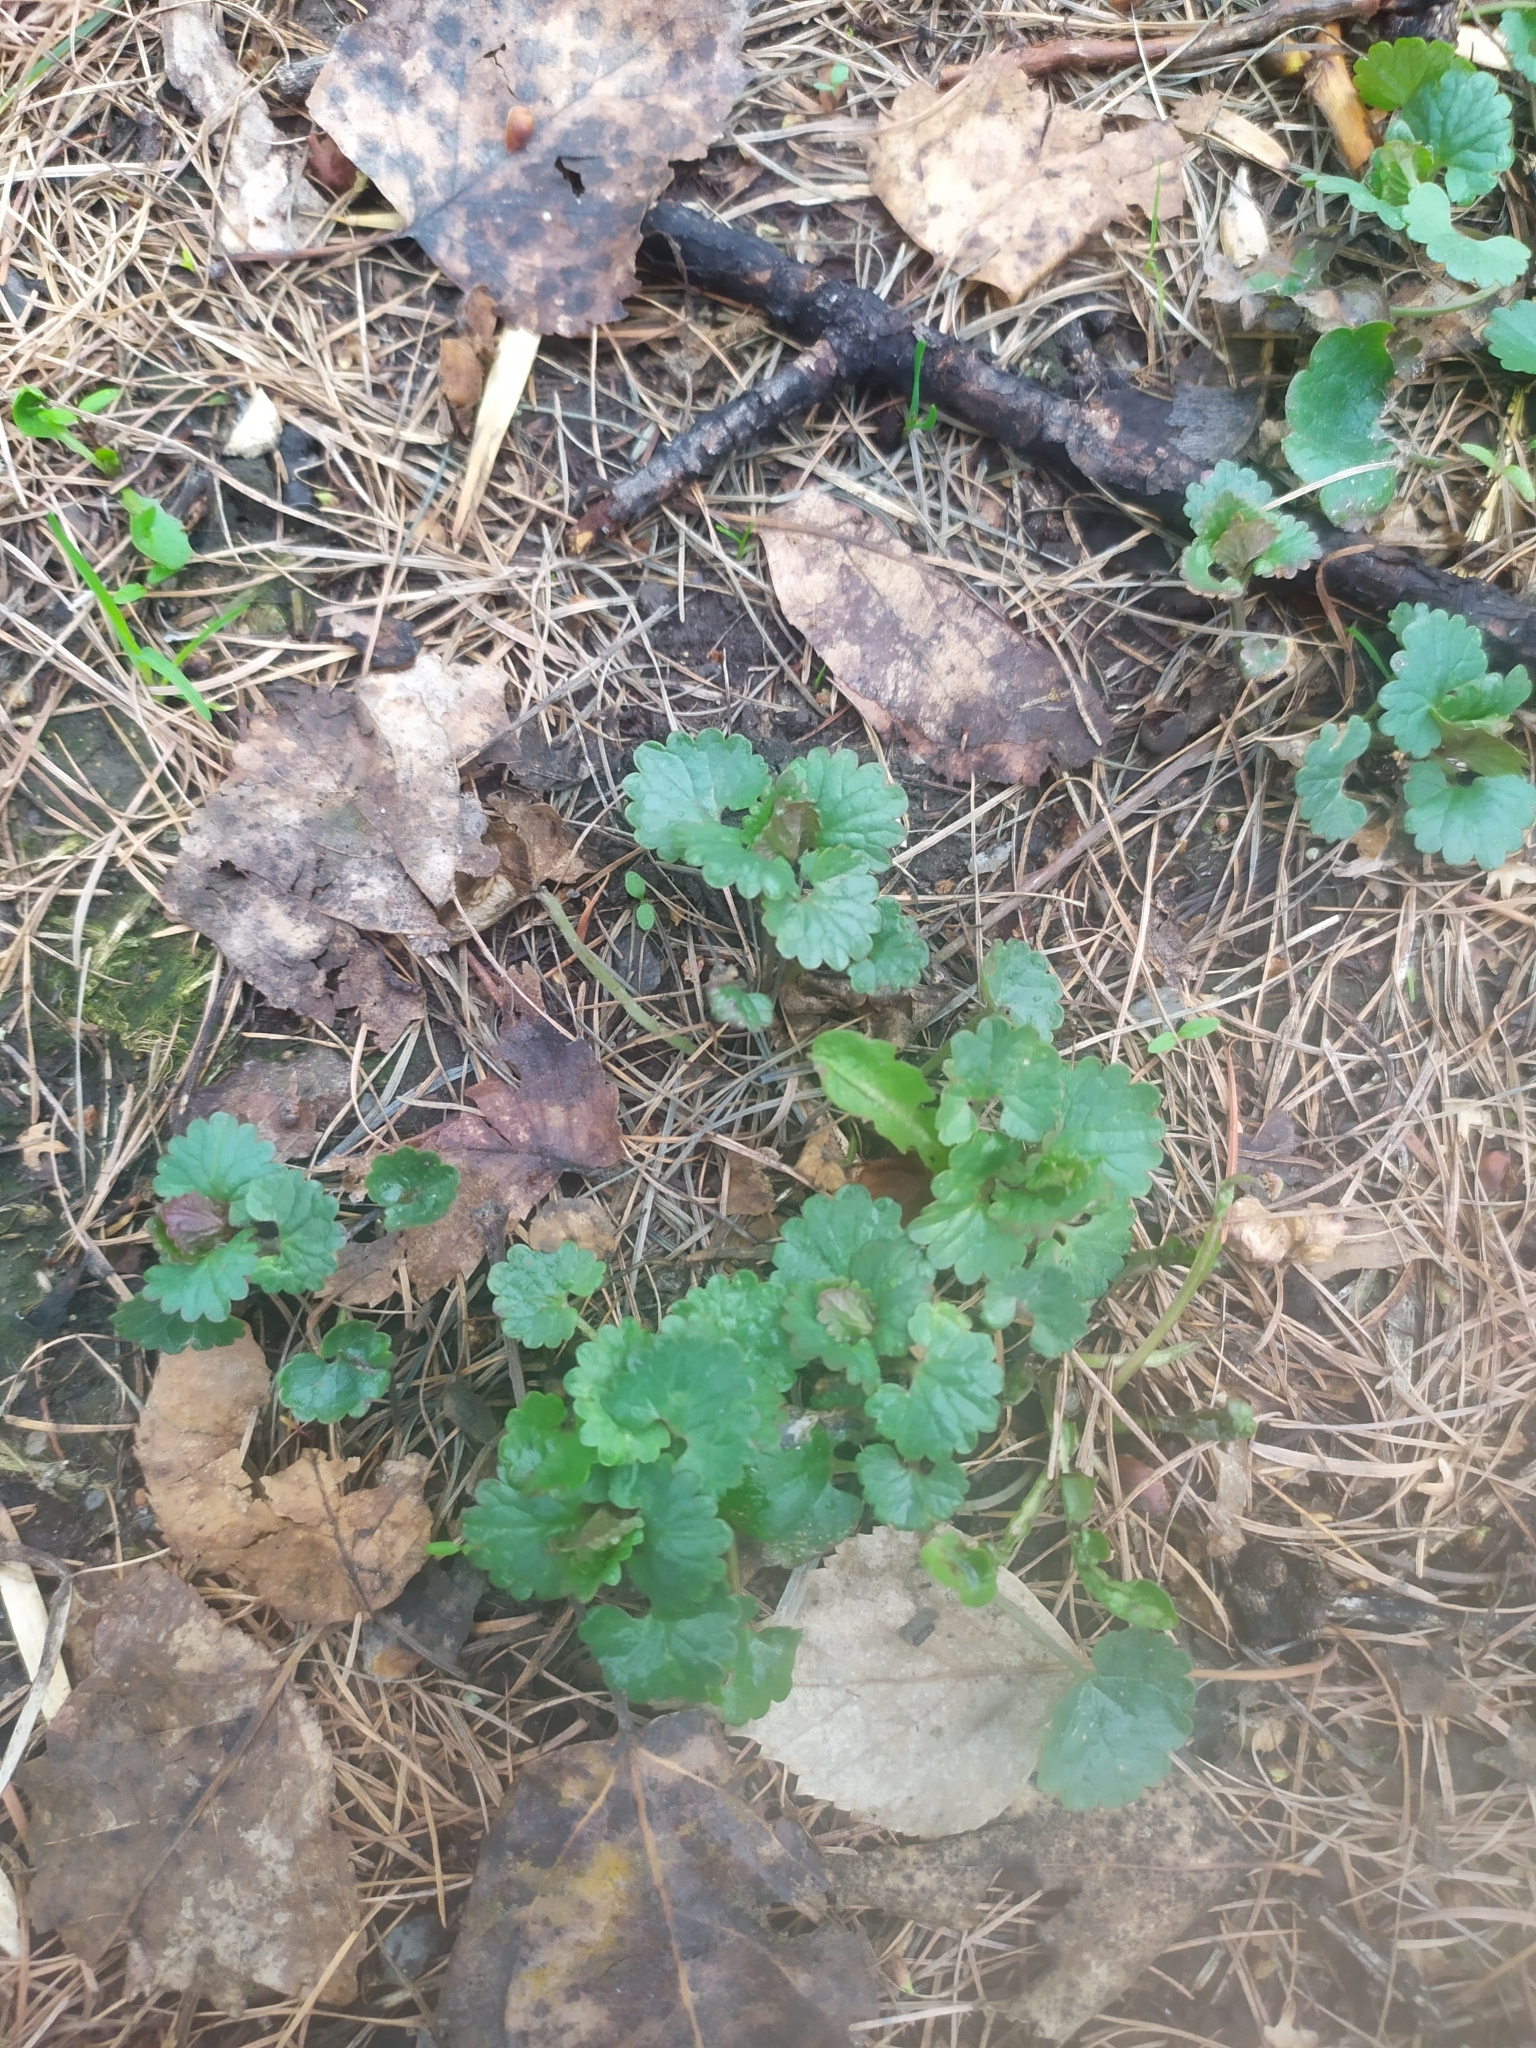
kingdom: Plantae
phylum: Tracheophyta
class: Magnoliopsida
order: Lamiales
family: Lamiaceae
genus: Glechoma
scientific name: Glechoma hederacea
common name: Ground ivy
